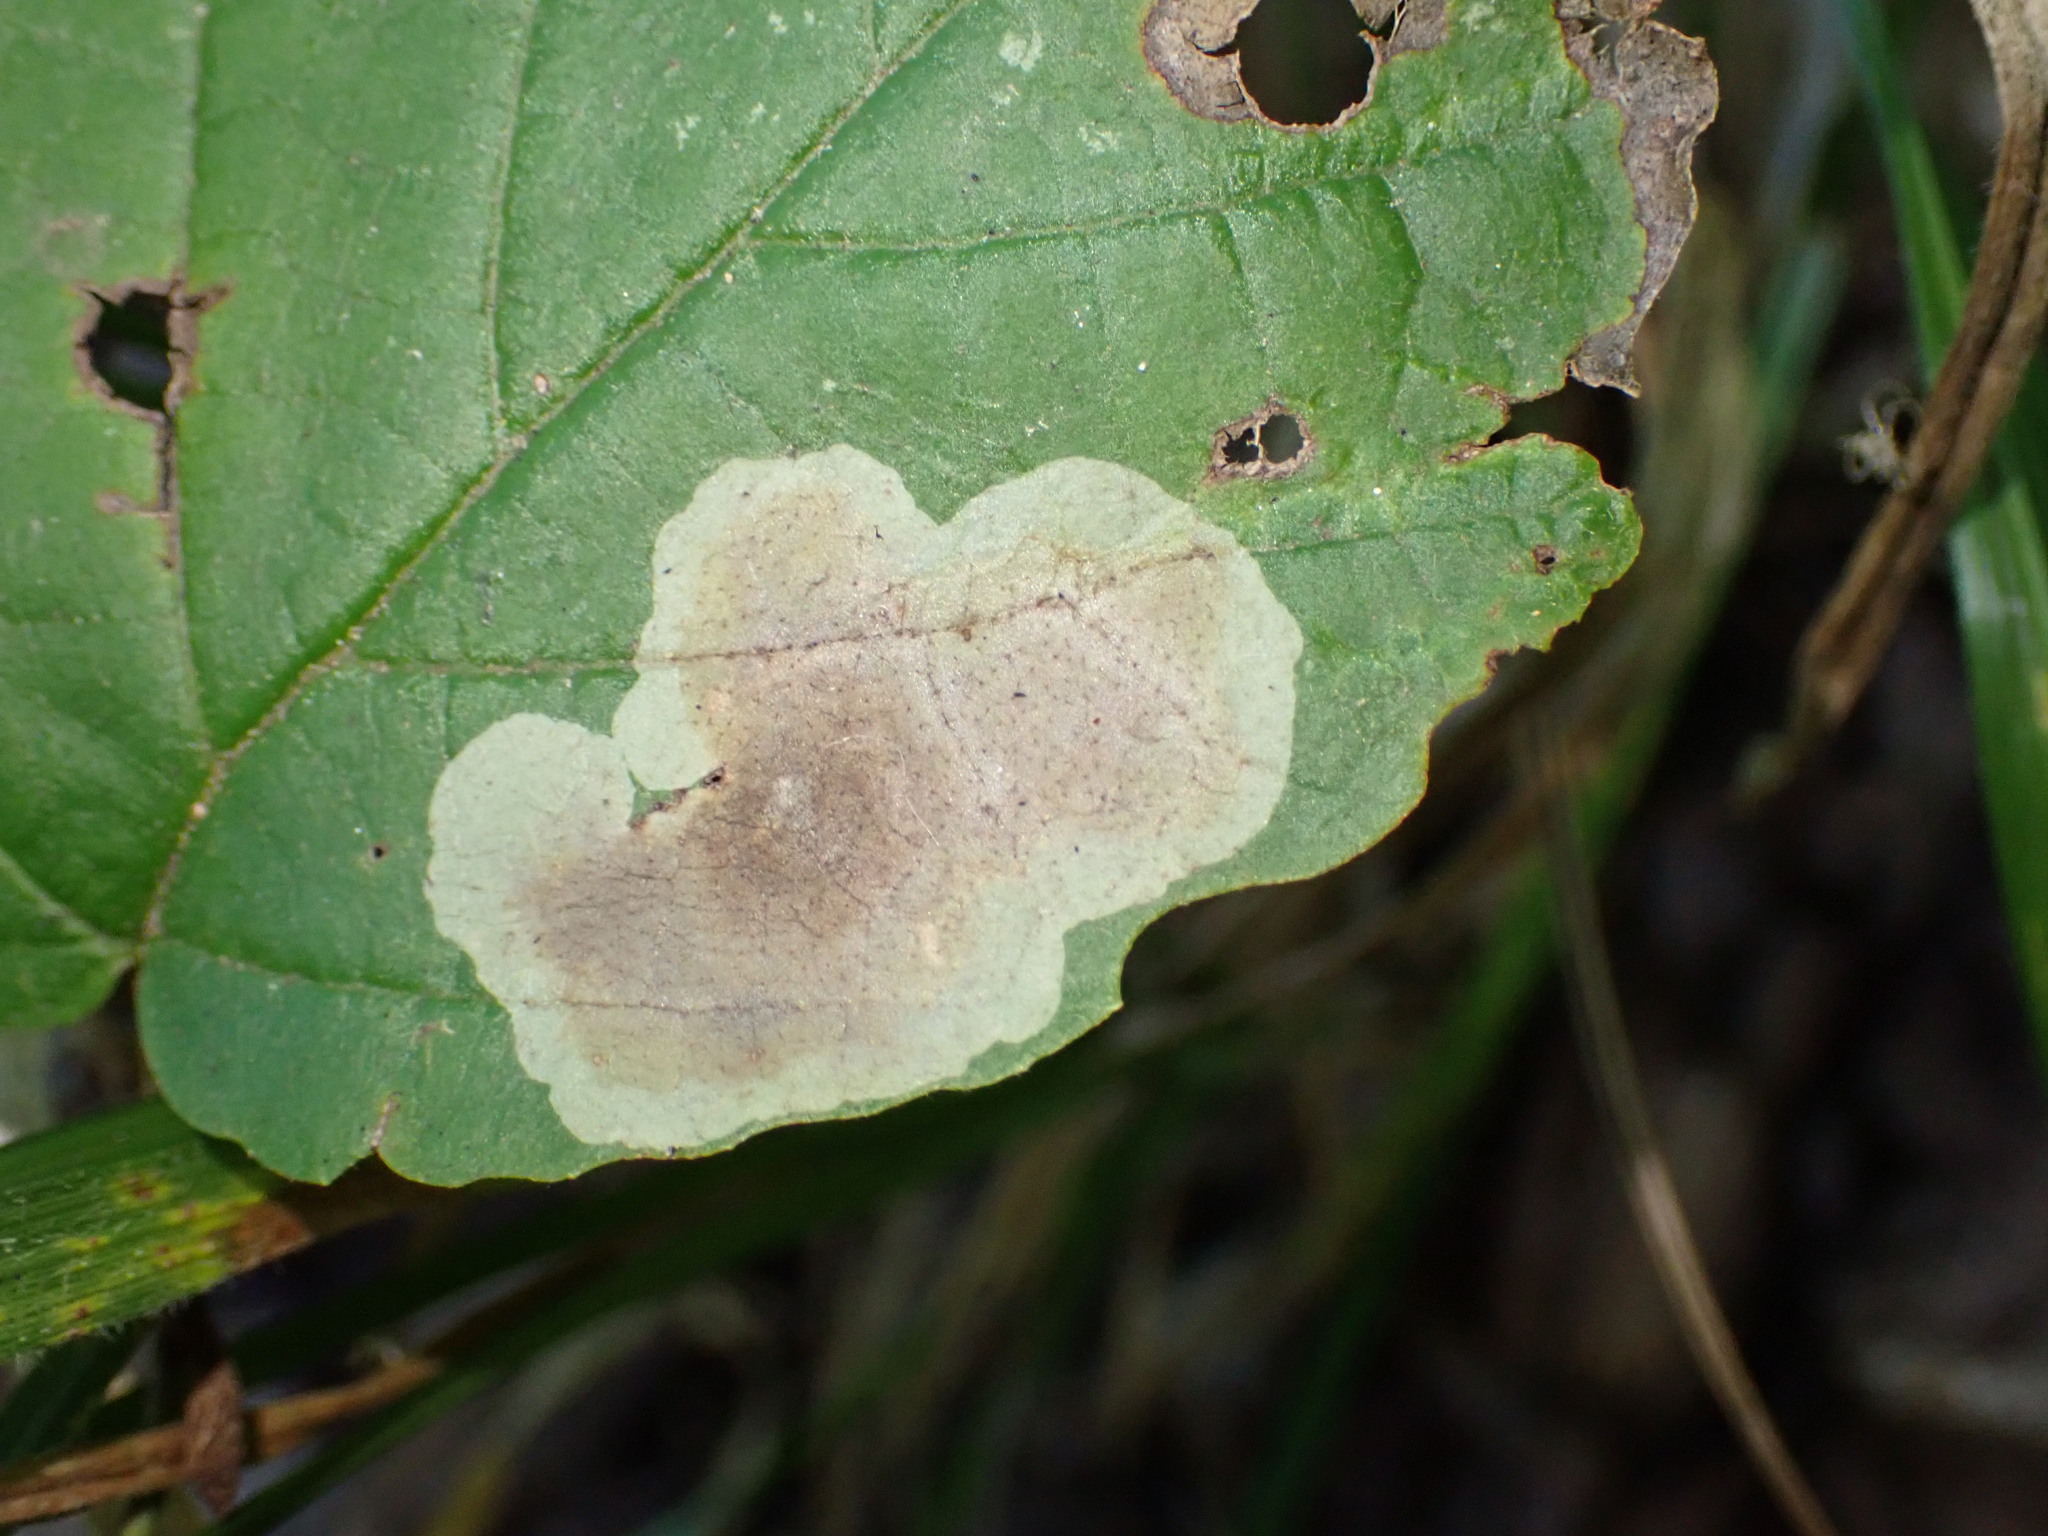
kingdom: Animalia
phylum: Arthropoda
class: Insecta
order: Lepidoptera
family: Gracillariidae
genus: Cameraria
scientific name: Cameraria hamameliella
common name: Witchhazel leafminer
